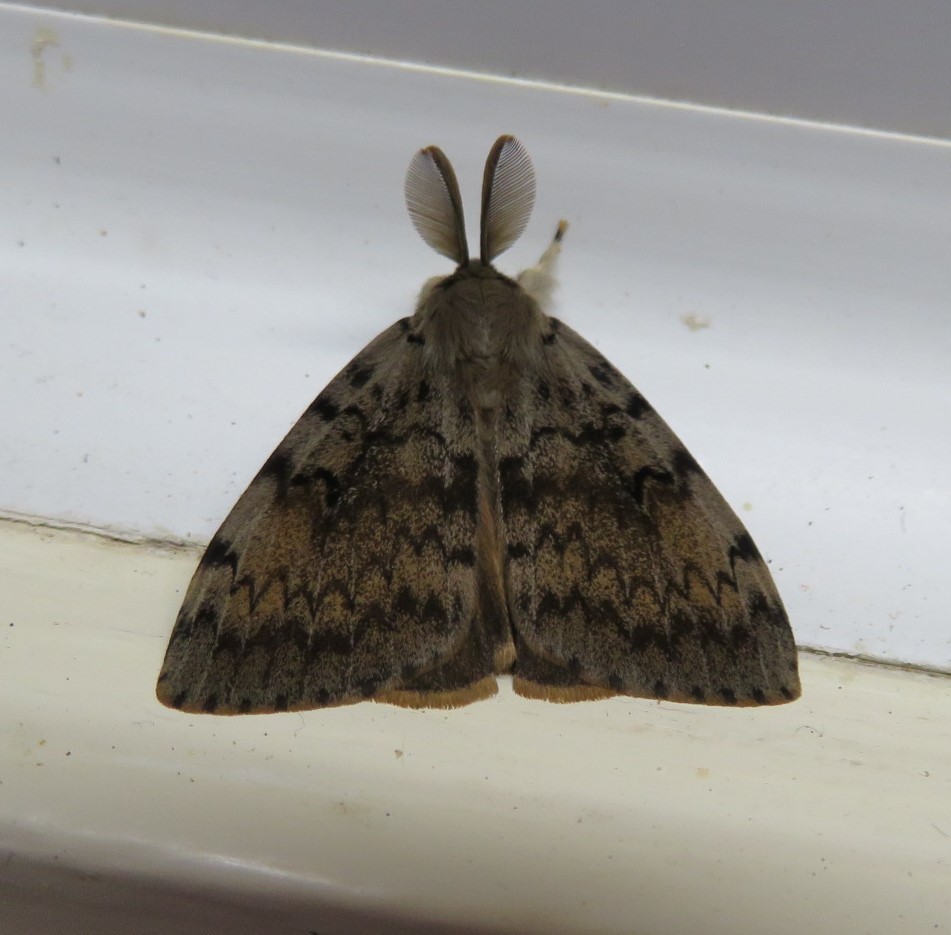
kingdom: Animalia
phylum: Arthropoda
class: Insecta
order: Lepidoptera
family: Erebidae
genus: Lymantria
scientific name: Lymantria dispar
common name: Gypsy moth
